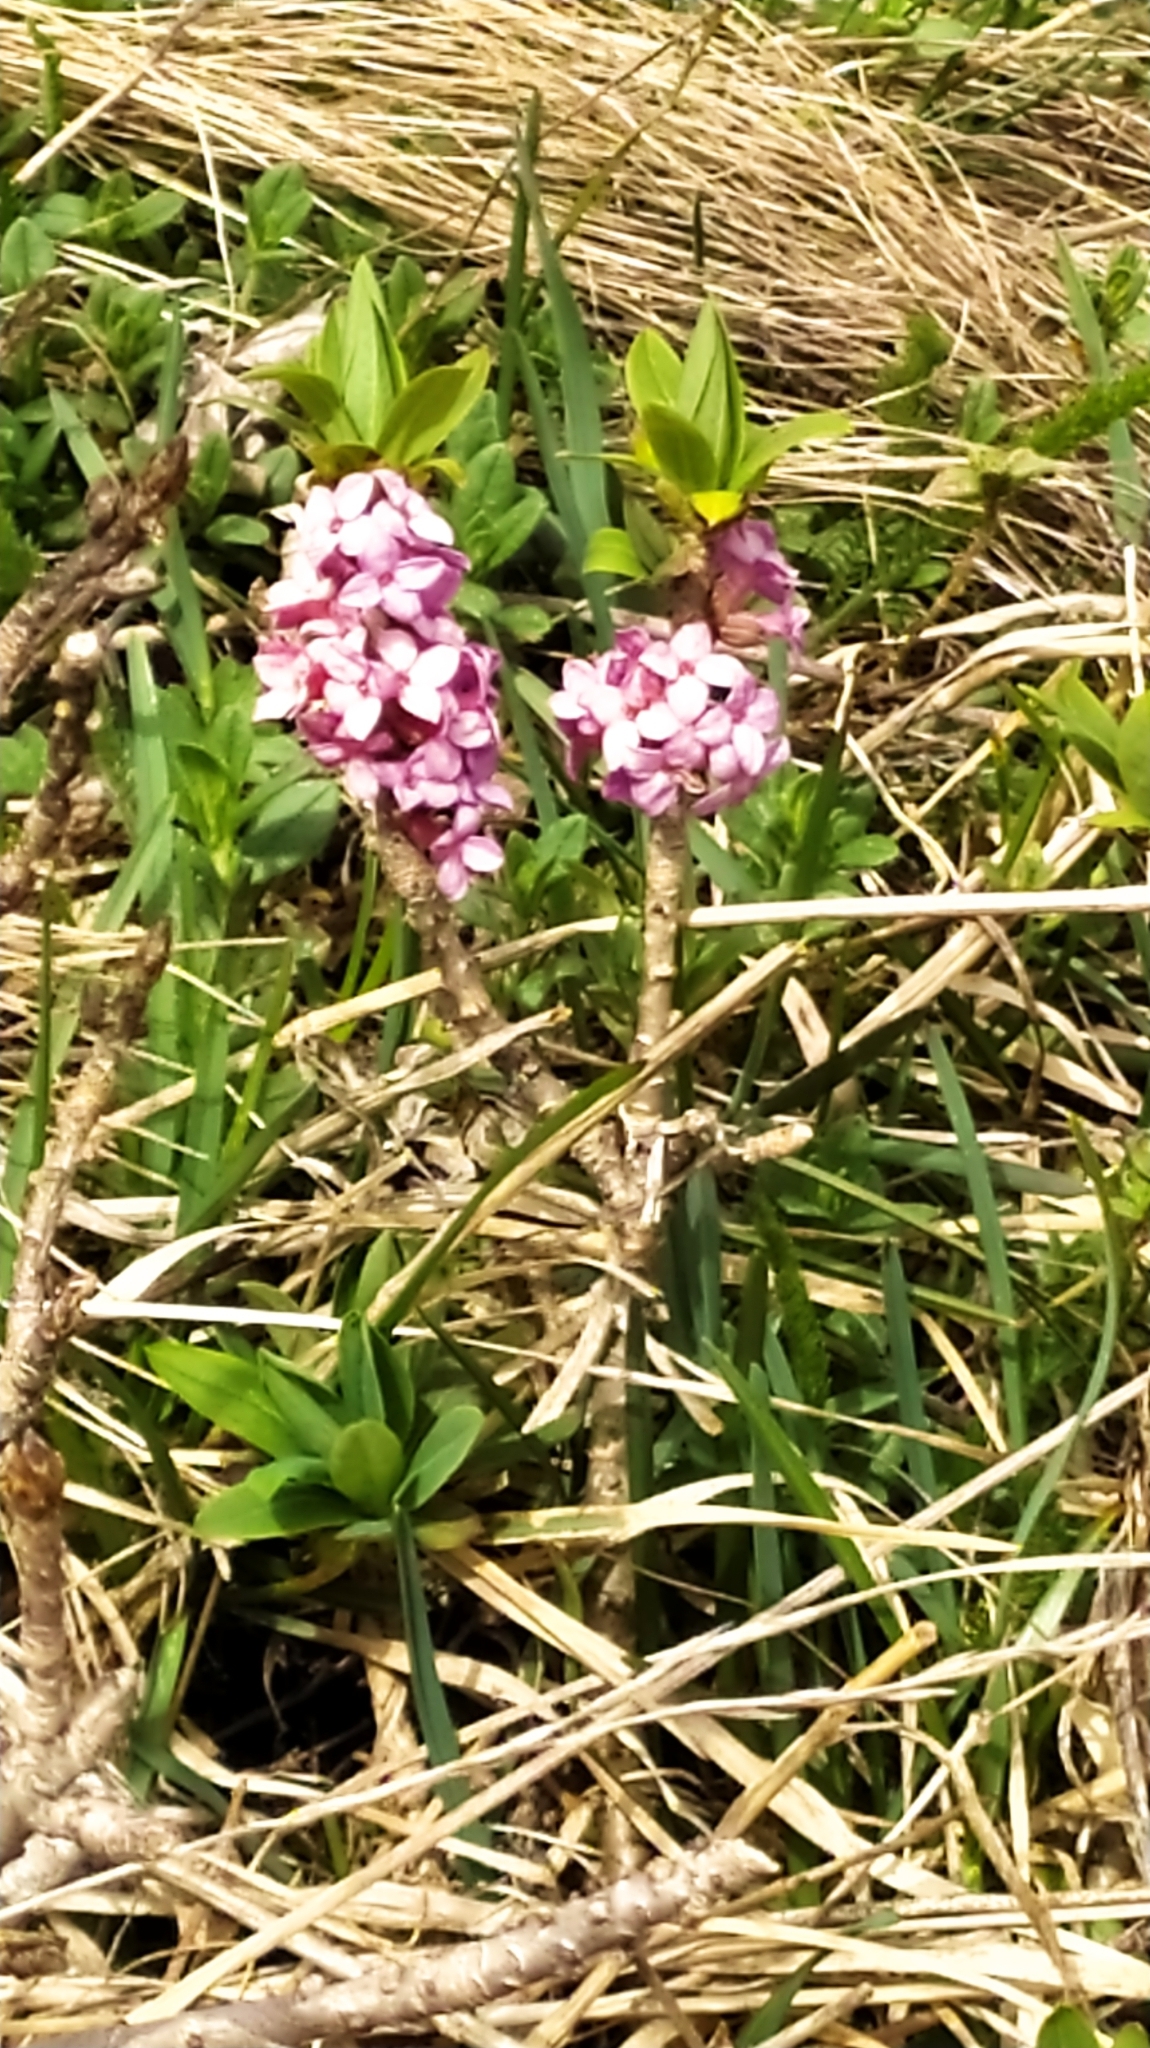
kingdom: Plantae
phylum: Tracheophyta
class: Magnoliopsida
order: Malvales
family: Thymelaeaceae
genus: Daphne
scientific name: Daphne mezereum
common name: Mezereon
